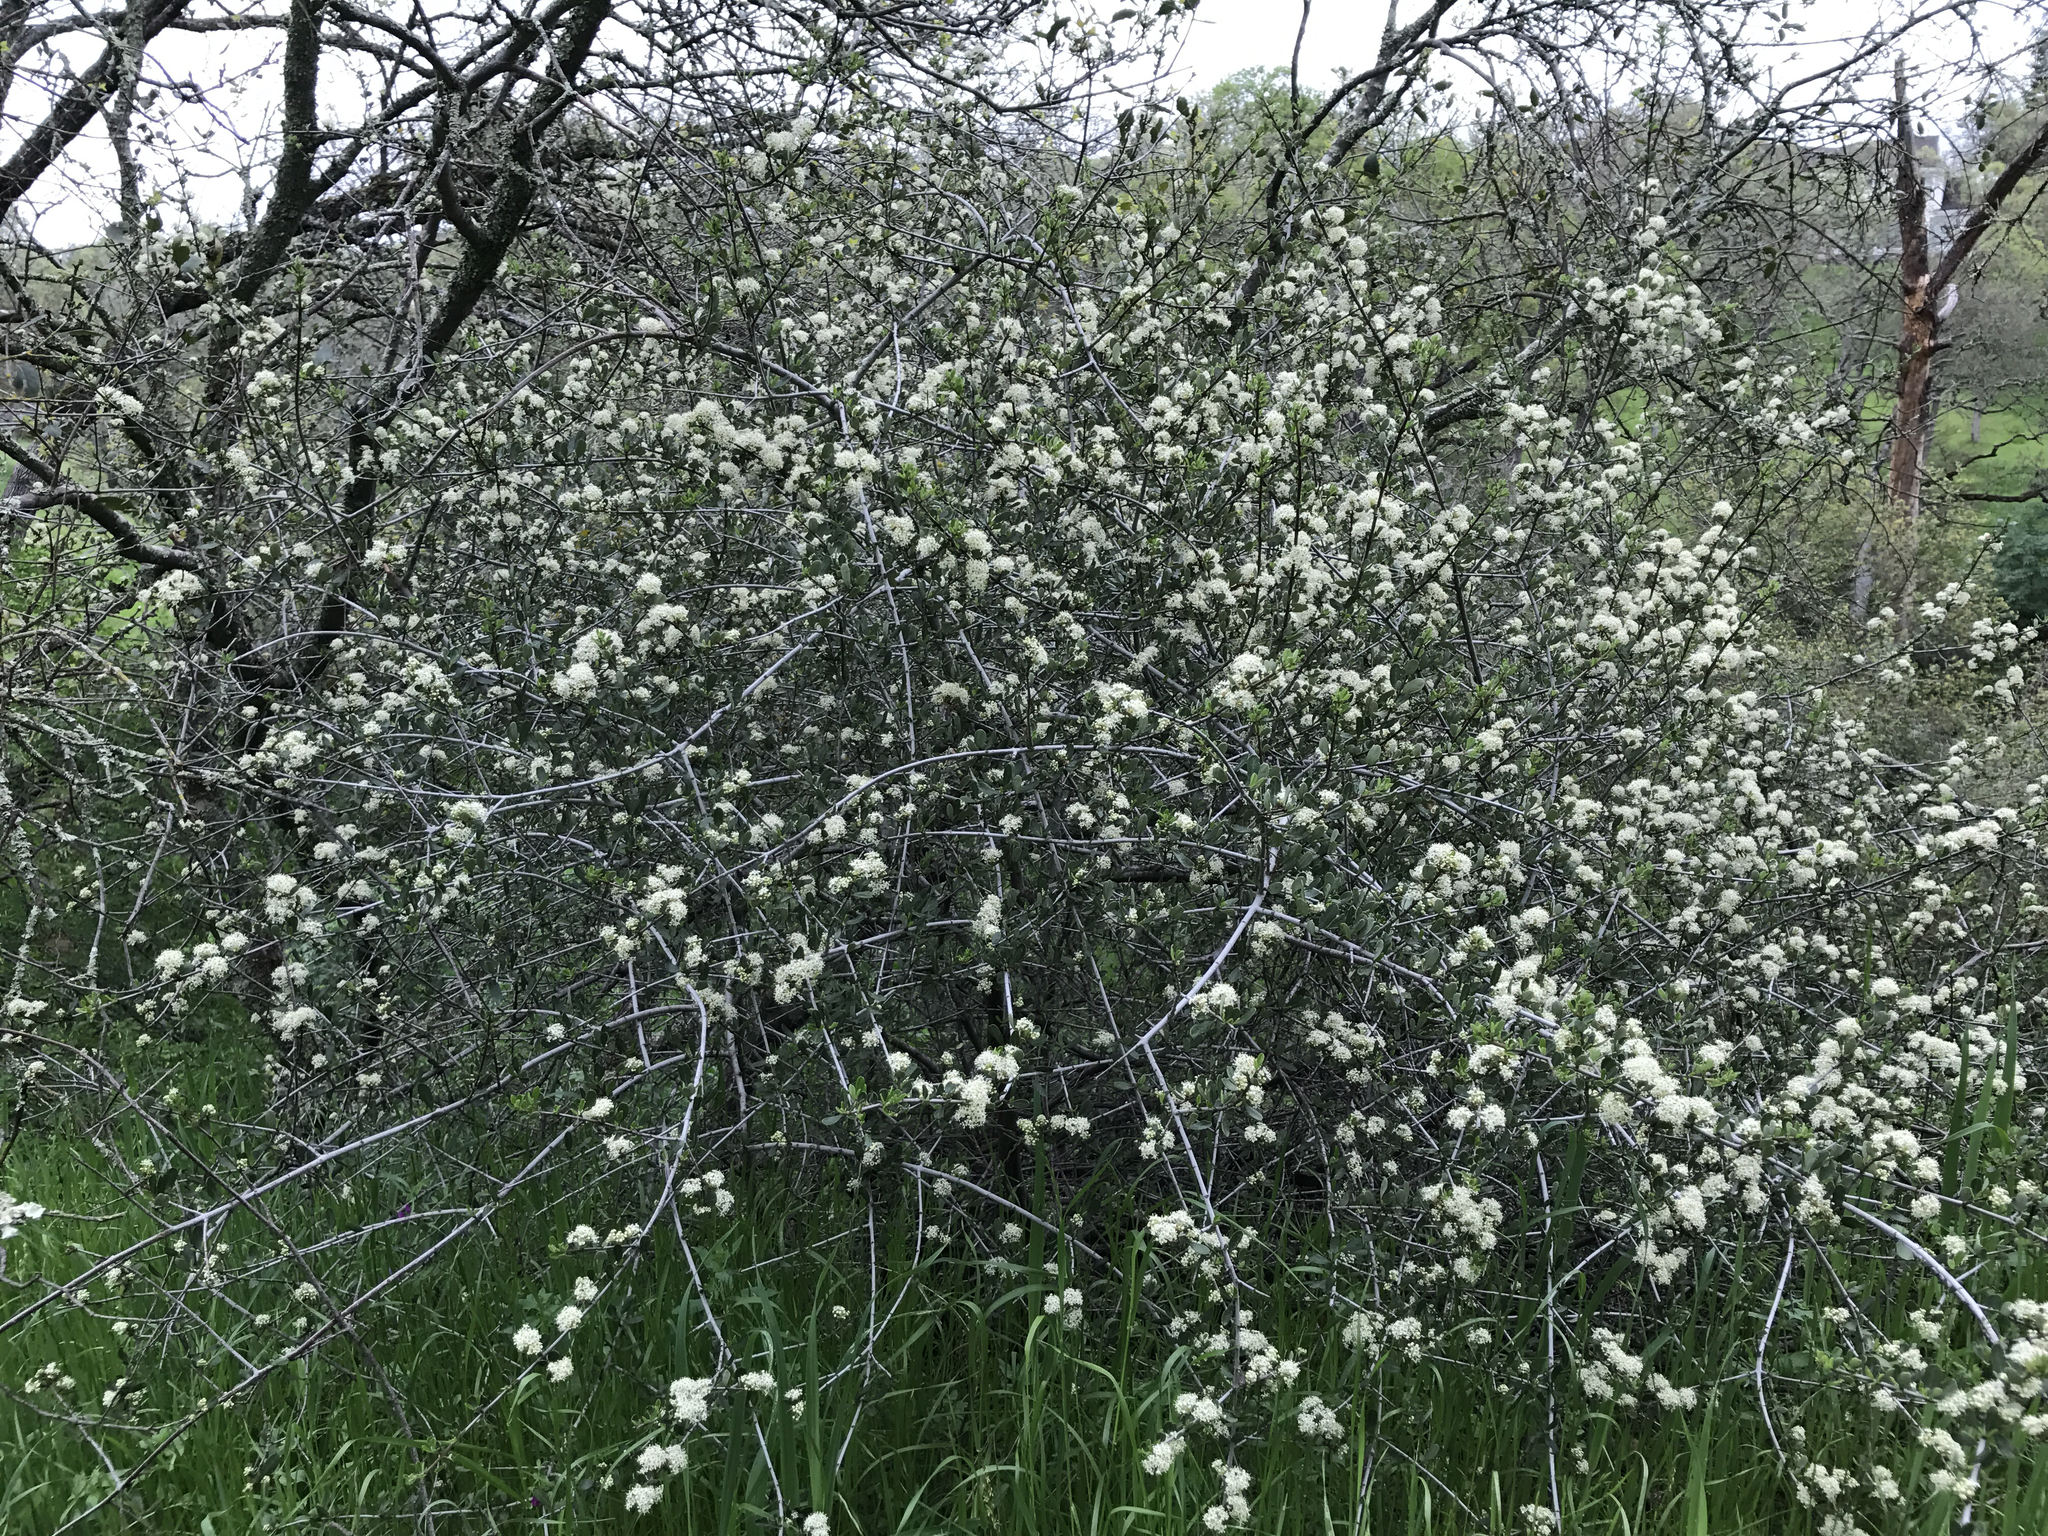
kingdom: Plantae
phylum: Tracheophyta
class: Magnoliopsida
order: Rosales
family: Rhamnaceae
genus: Ceanothus
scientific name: Ceanothus cuneatus
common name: Cuneate ceanothus
